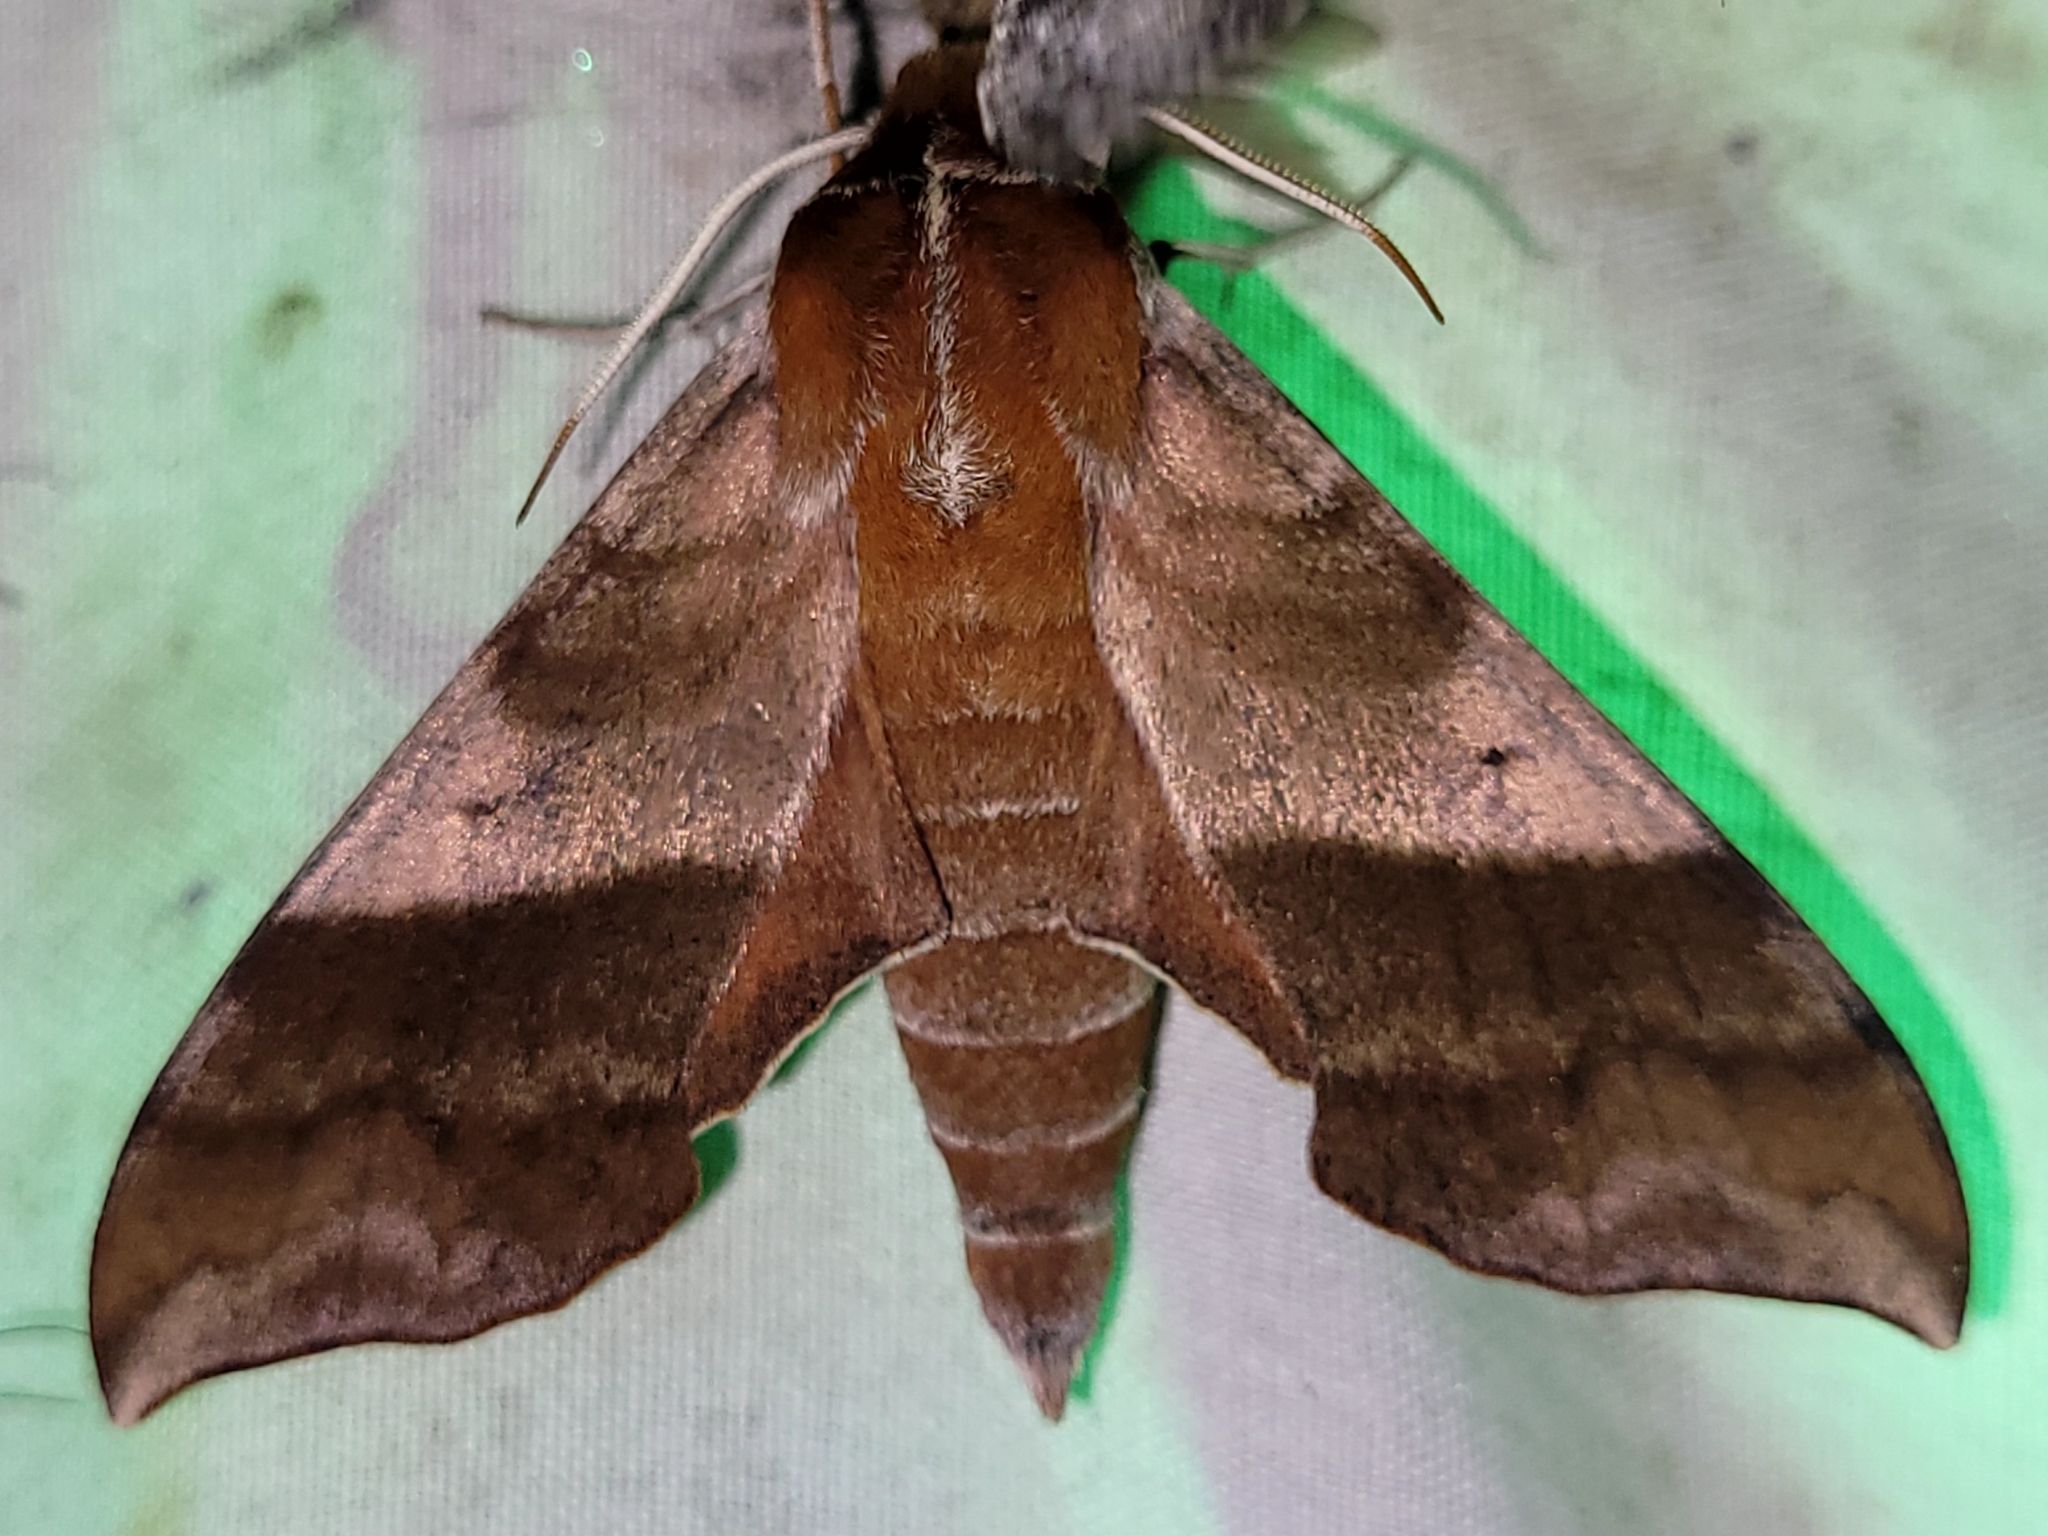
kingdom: Animalia
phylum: Arthropoda
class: Insecta
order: Lepidoptera
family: Sphingidae
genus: Darapsa
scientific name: Darapsa choerilus
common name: Azalea sphinx
